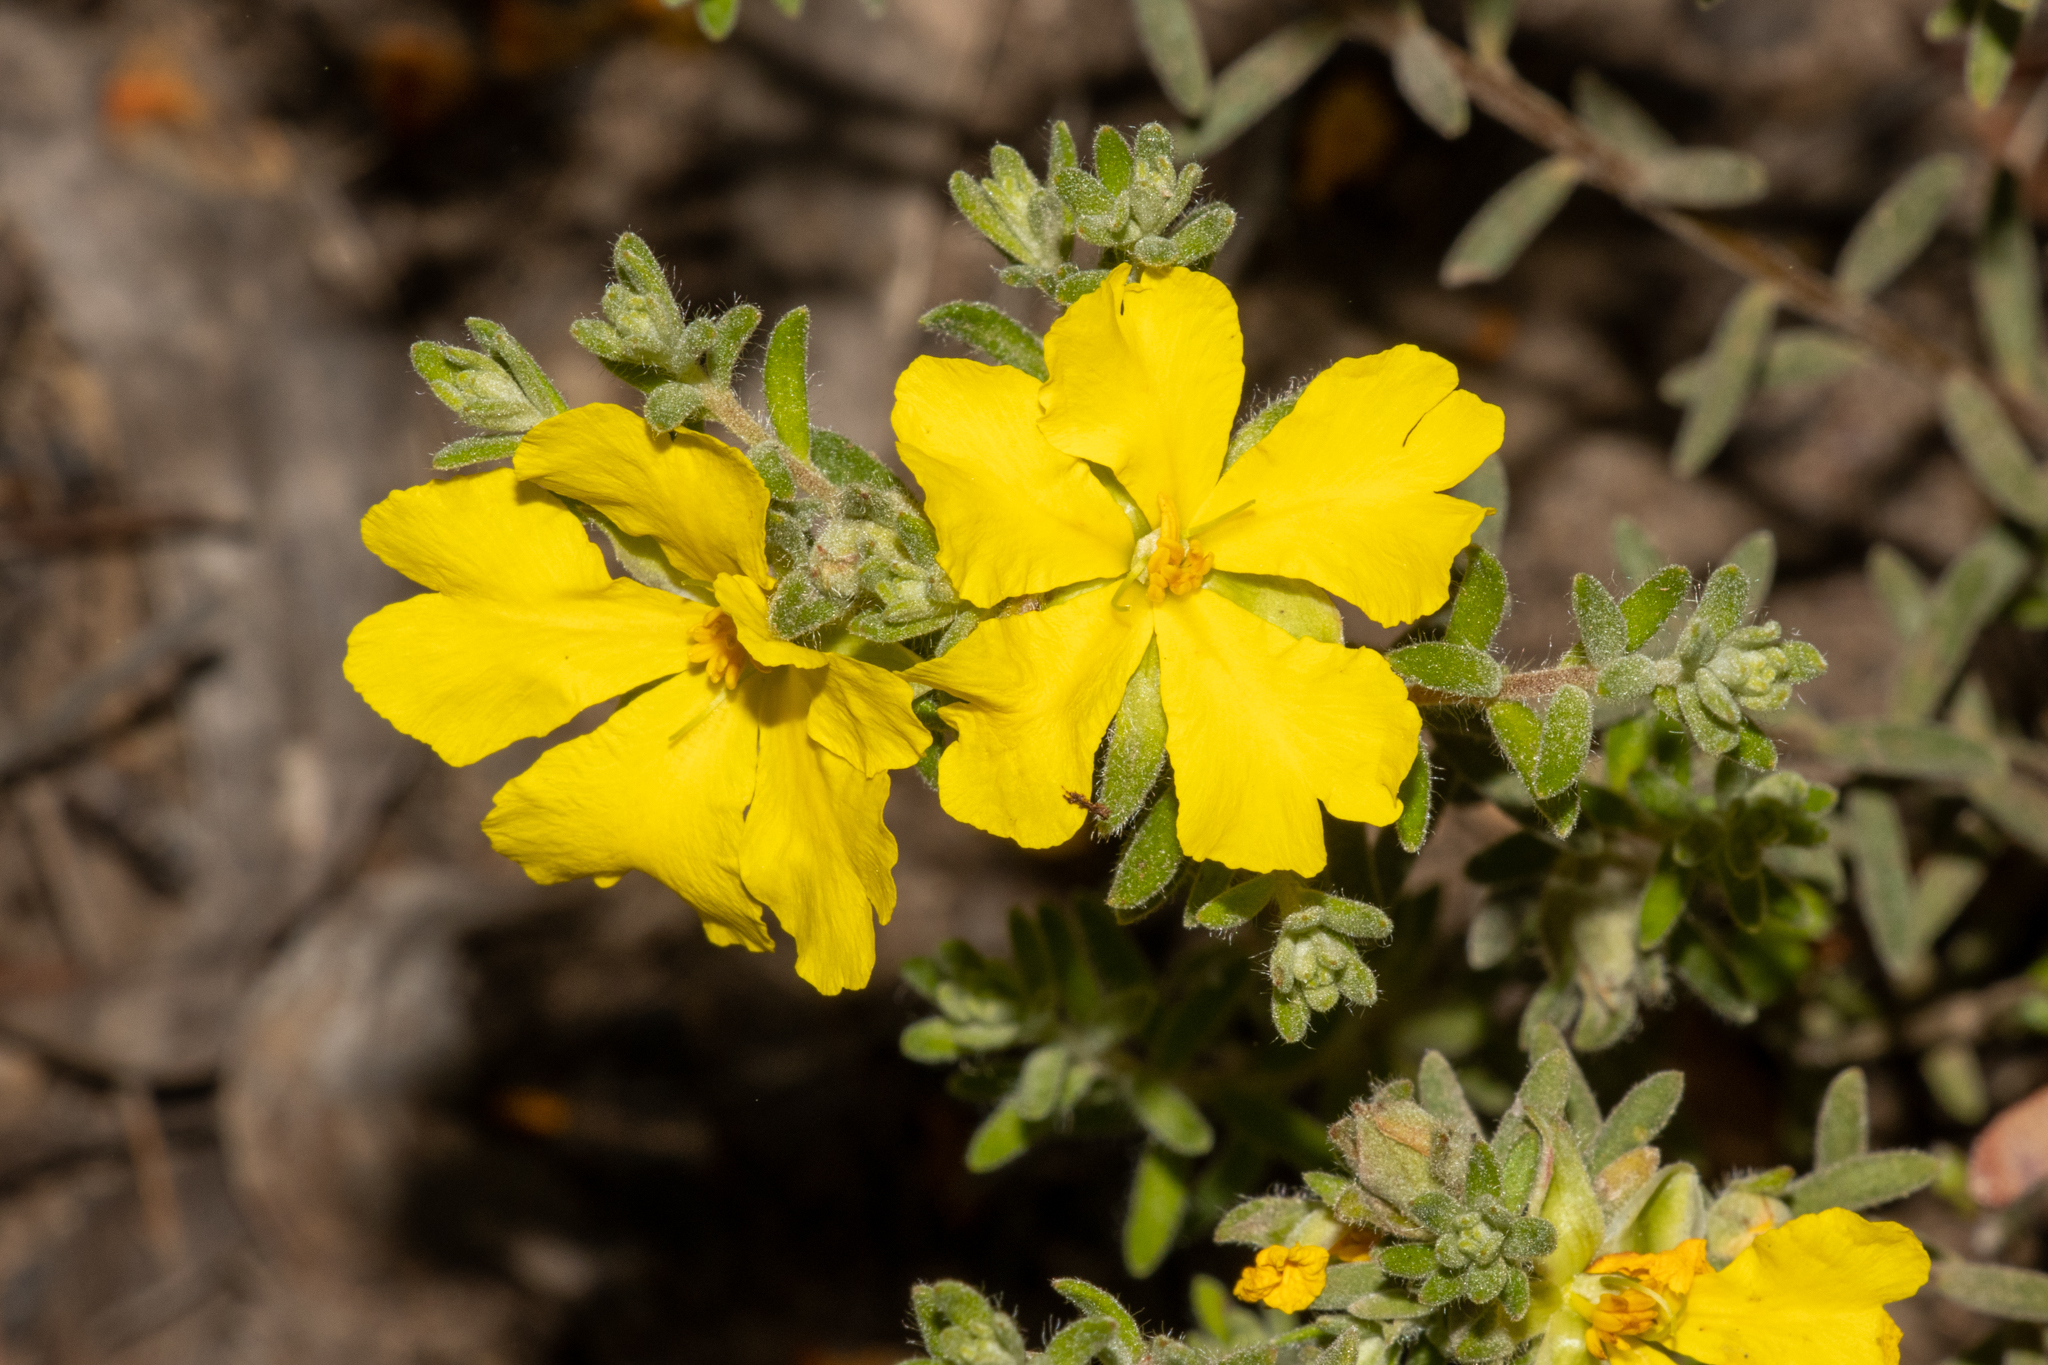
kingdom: Plantae
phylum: Tracheophyta
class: Magnoliopsida
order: Dilleniales
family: Dilleniaceae
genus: Hibbertia
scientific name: Hibbertia crinita
